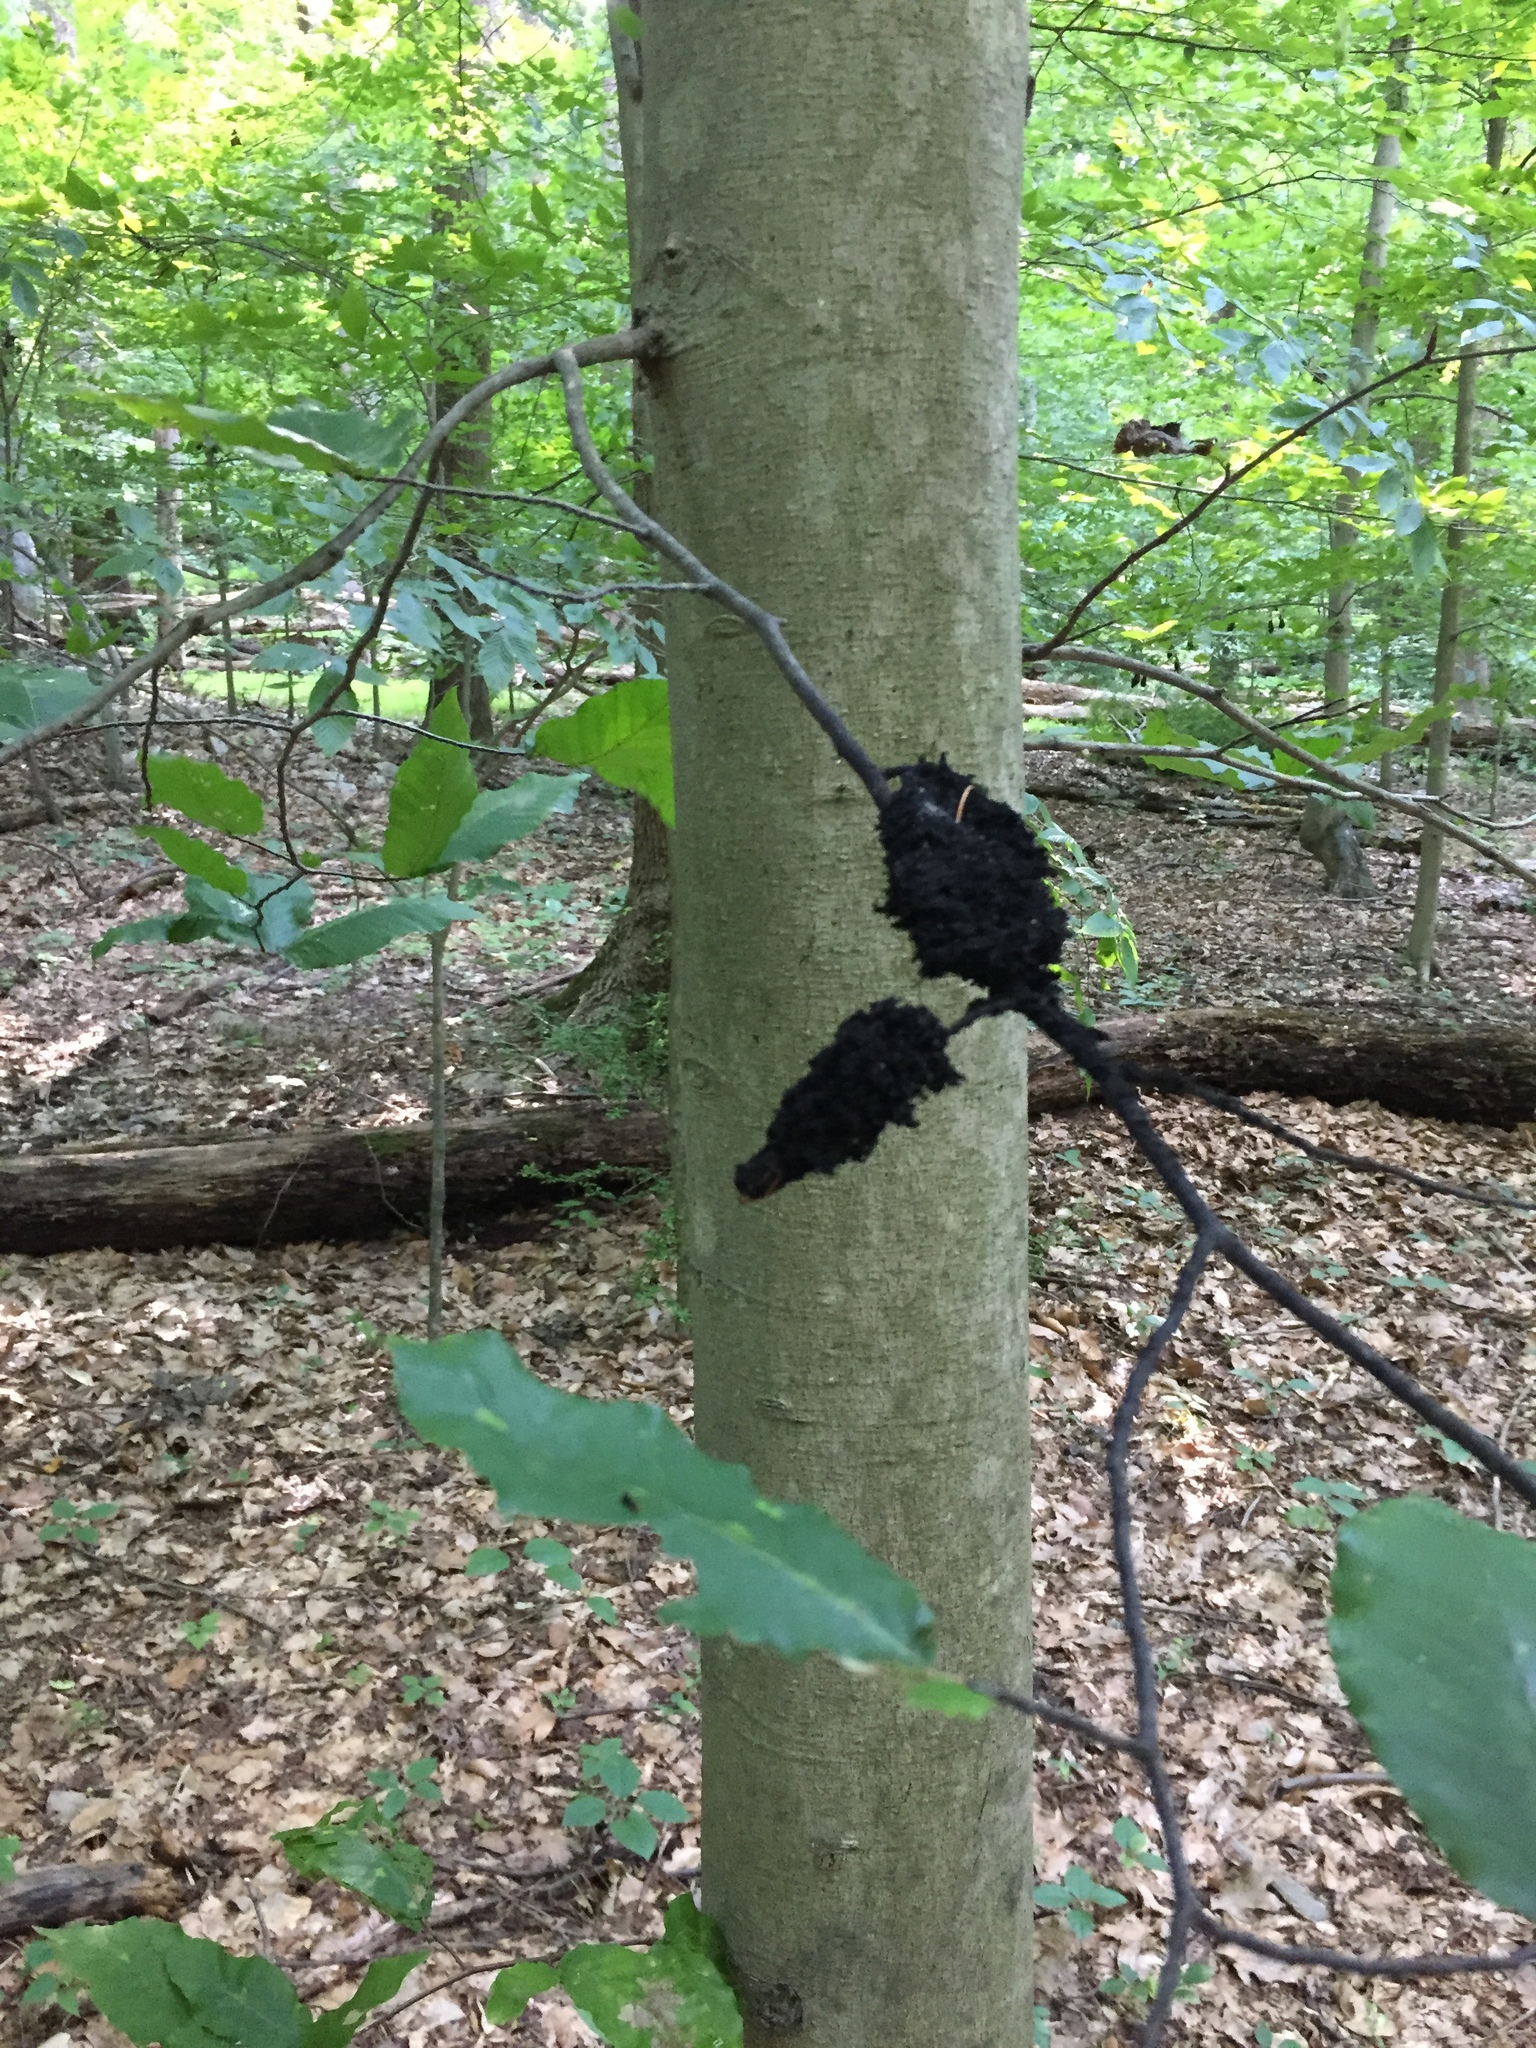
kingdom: Fungi
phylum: Ascomycota
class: Dothideomycetes
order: Capnodiales
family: Capnodiaceae
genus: Scorias
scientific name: Scorias spongiosa
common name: Black sooty mold
